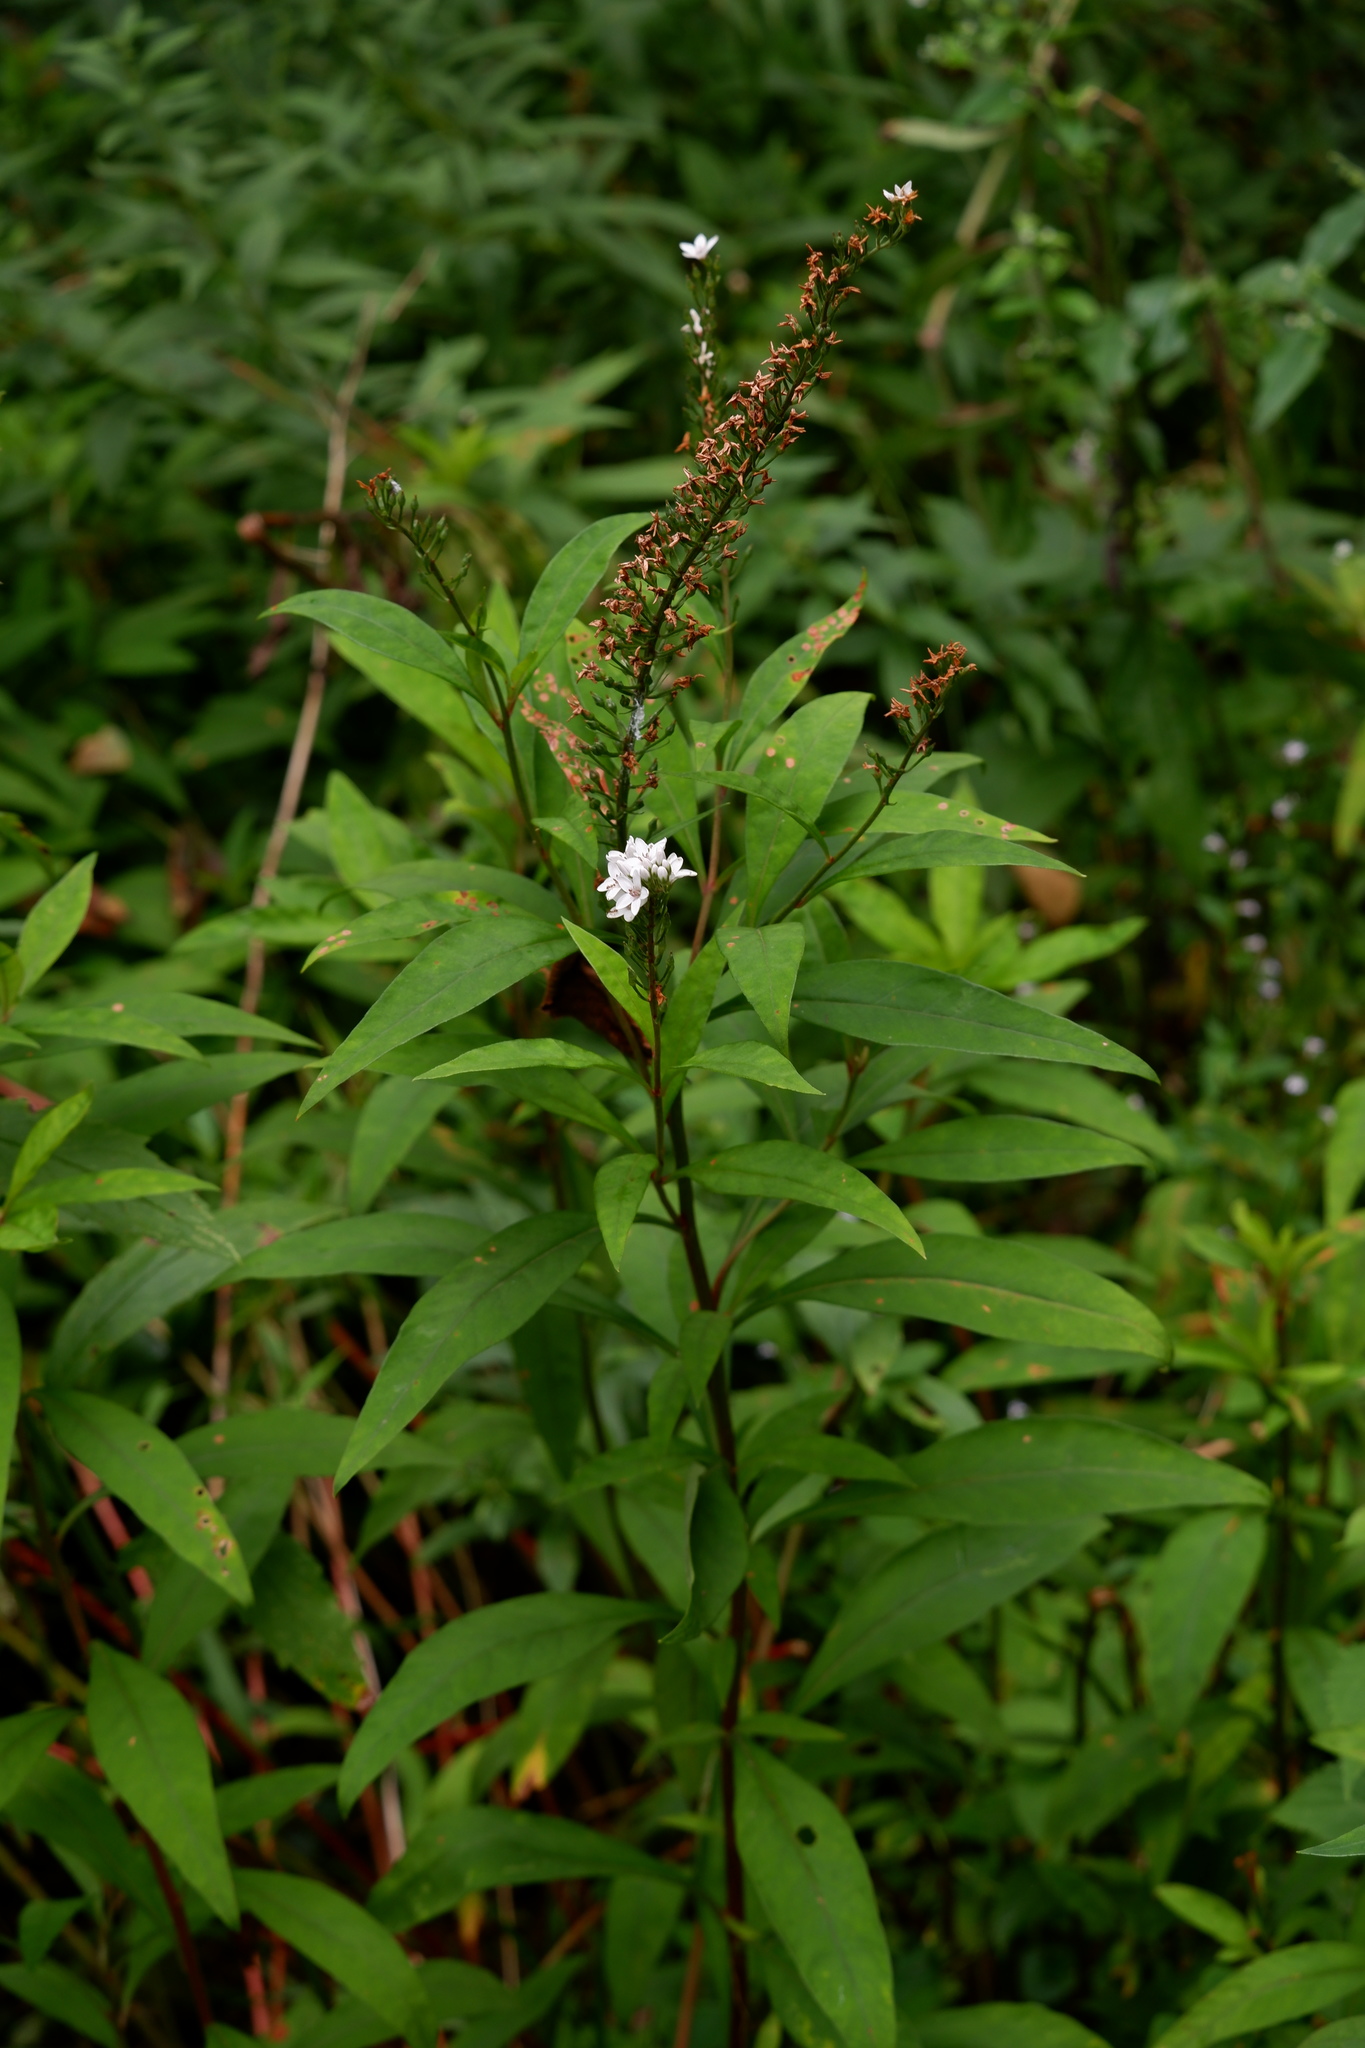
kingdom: Plantae
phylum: Tracheophyta
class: Magnoliopsida
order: Ericales
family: Primulaceae
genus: Lysimachia
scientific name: Lysimachia clethroides
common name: Gooseneck loosestrife
